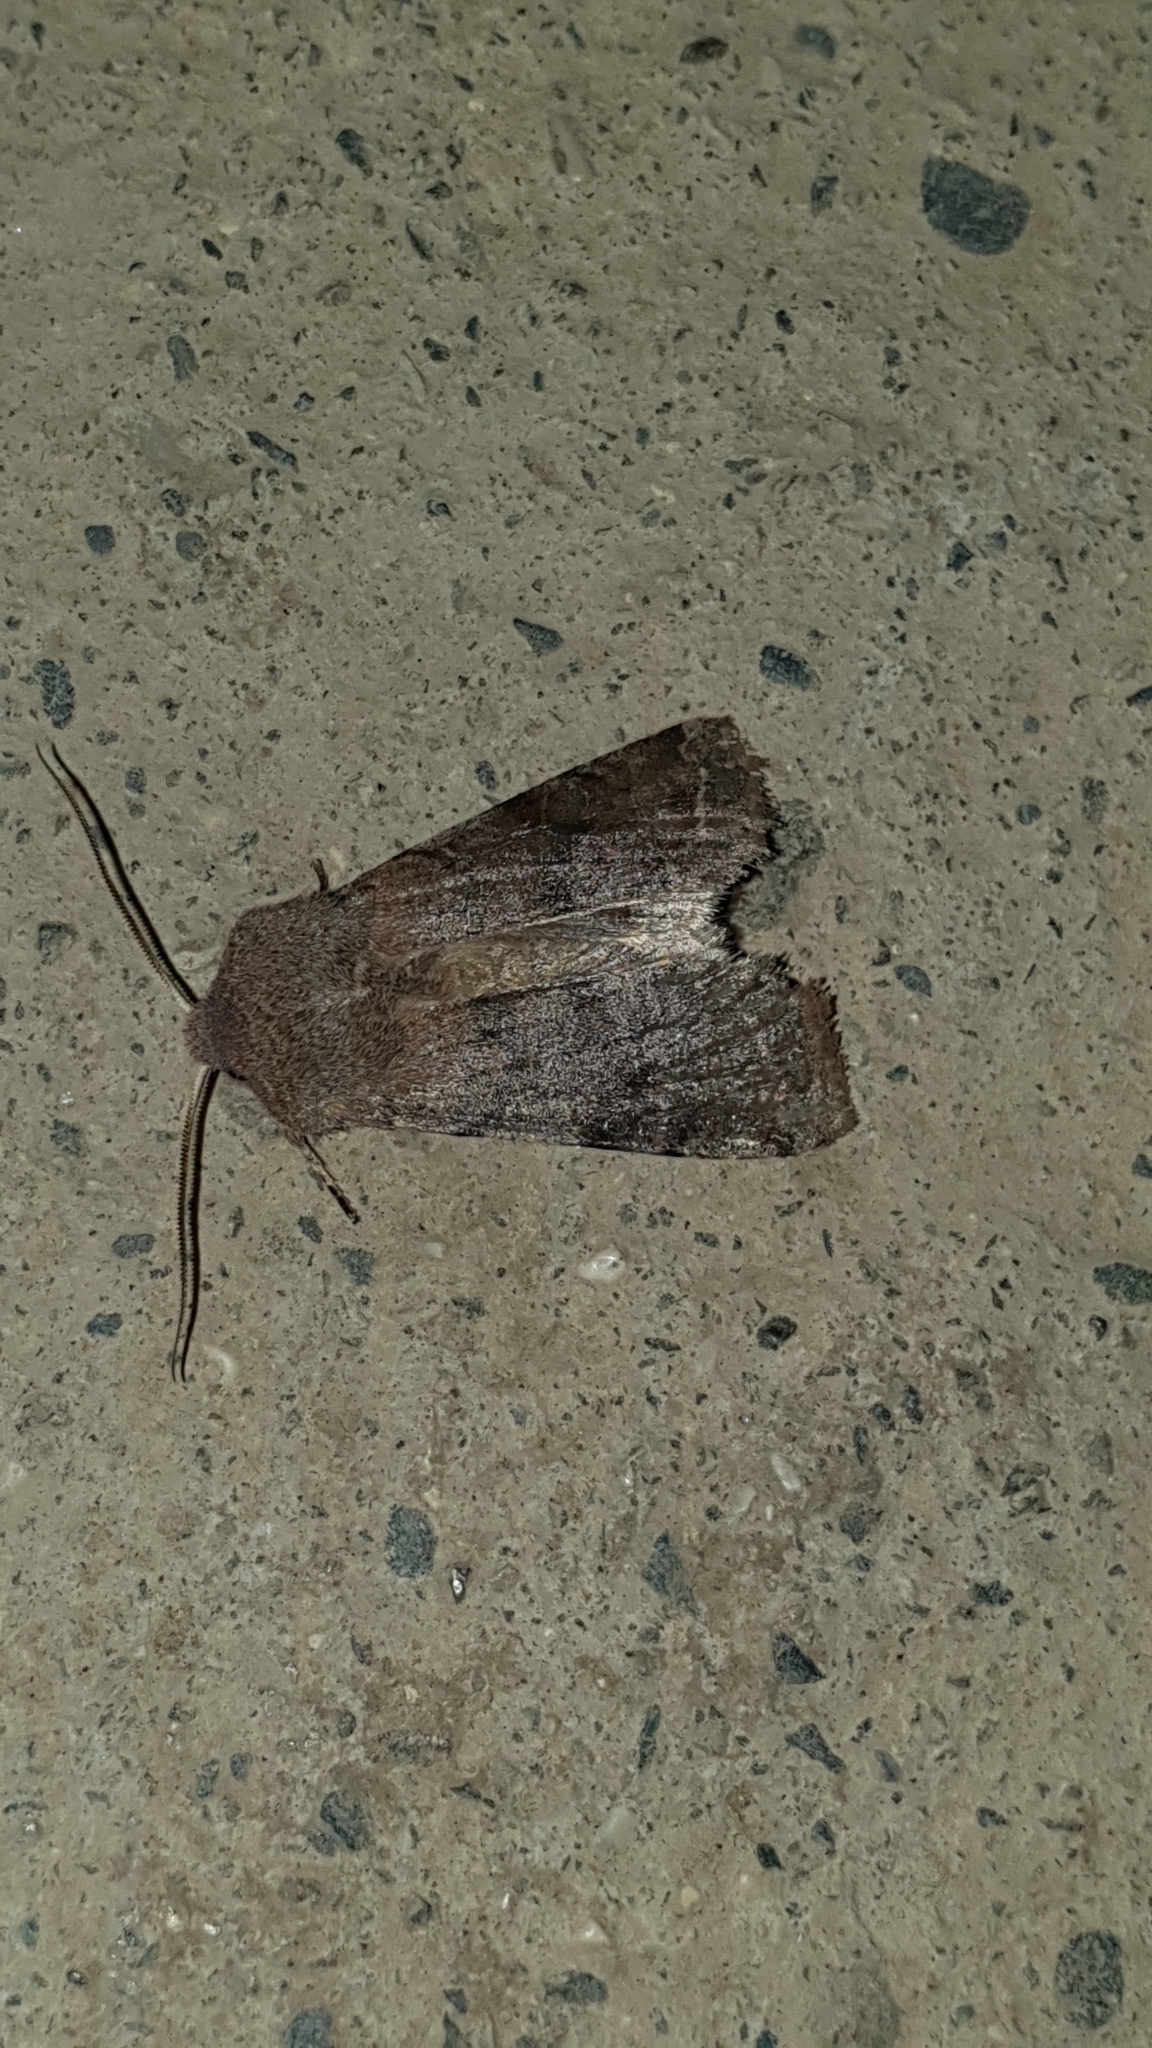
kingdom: Animalia
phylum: Arthropoda
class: Insecta
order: Lepidoptera
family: Noctuidae
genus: Orthosia
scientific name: Orthosia incerta
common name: Clouded drab
